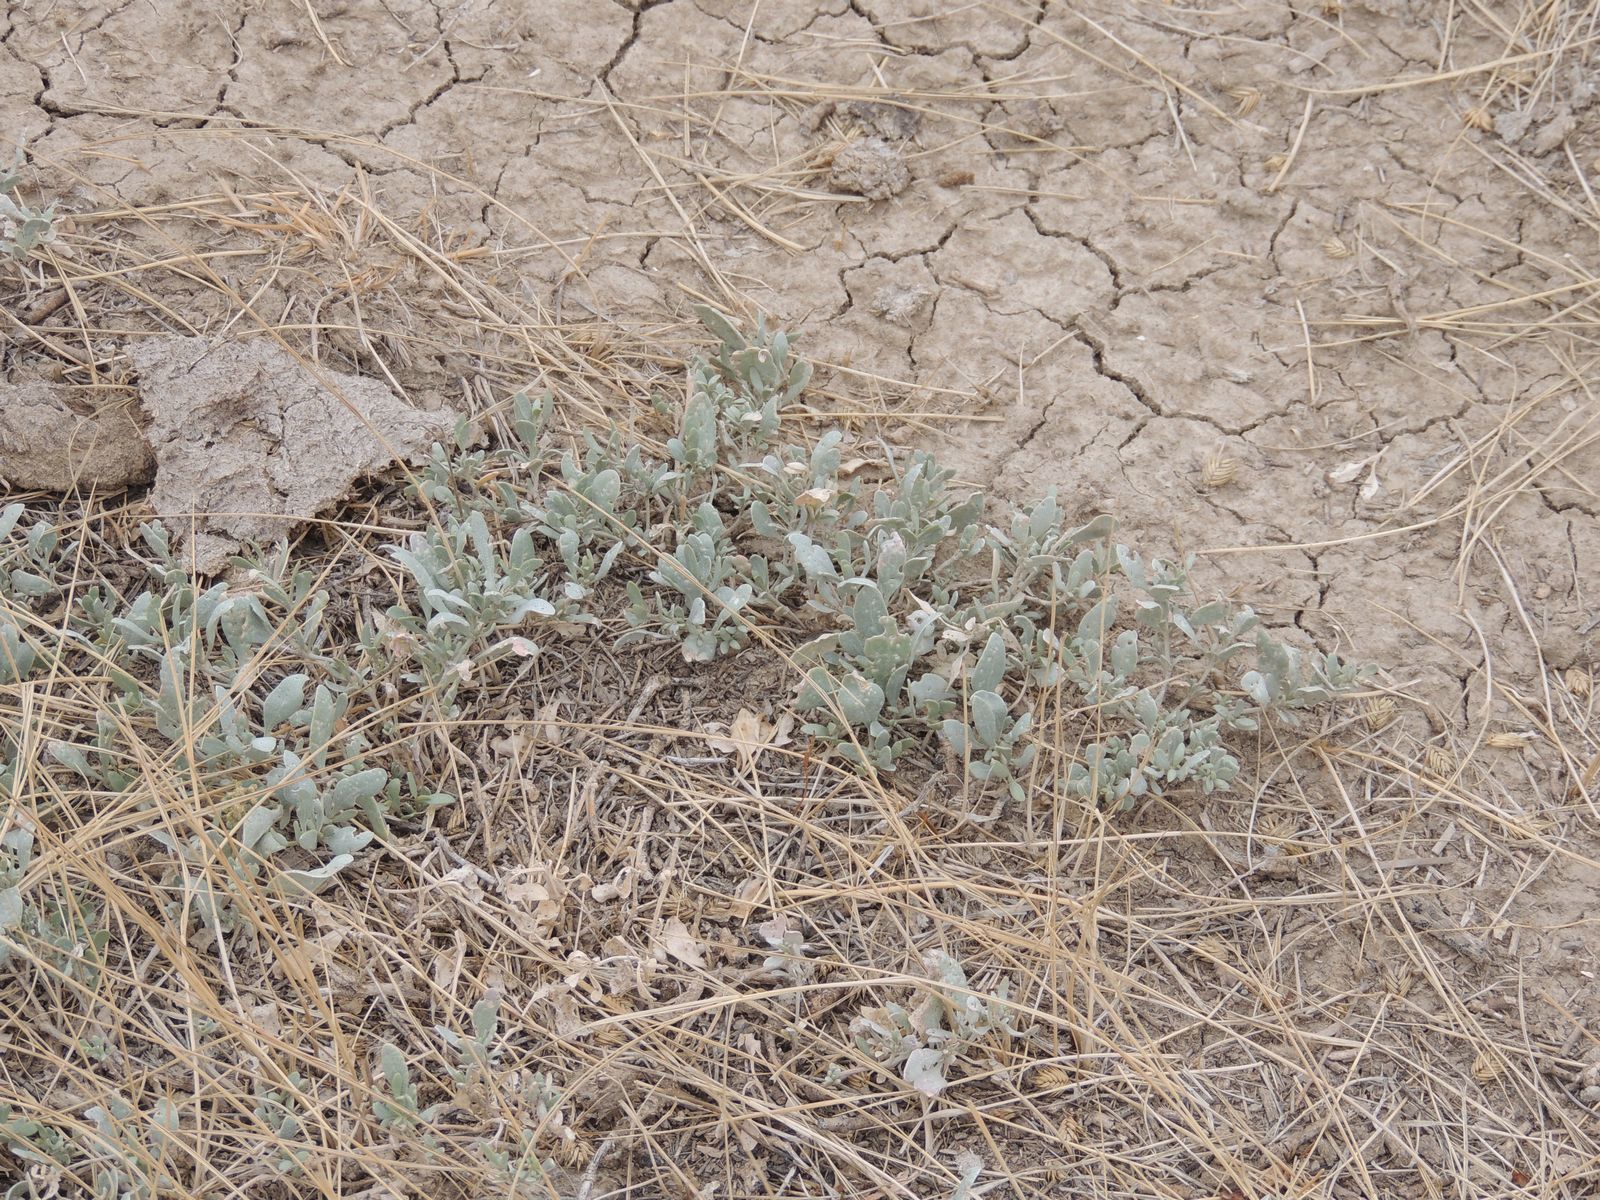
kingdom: Plantae
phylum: Tracheophyta
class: Magnoliopsida
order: Caryophyllales
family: Amaranthaceae
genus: Halimione
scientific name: Halimione verrucifera
